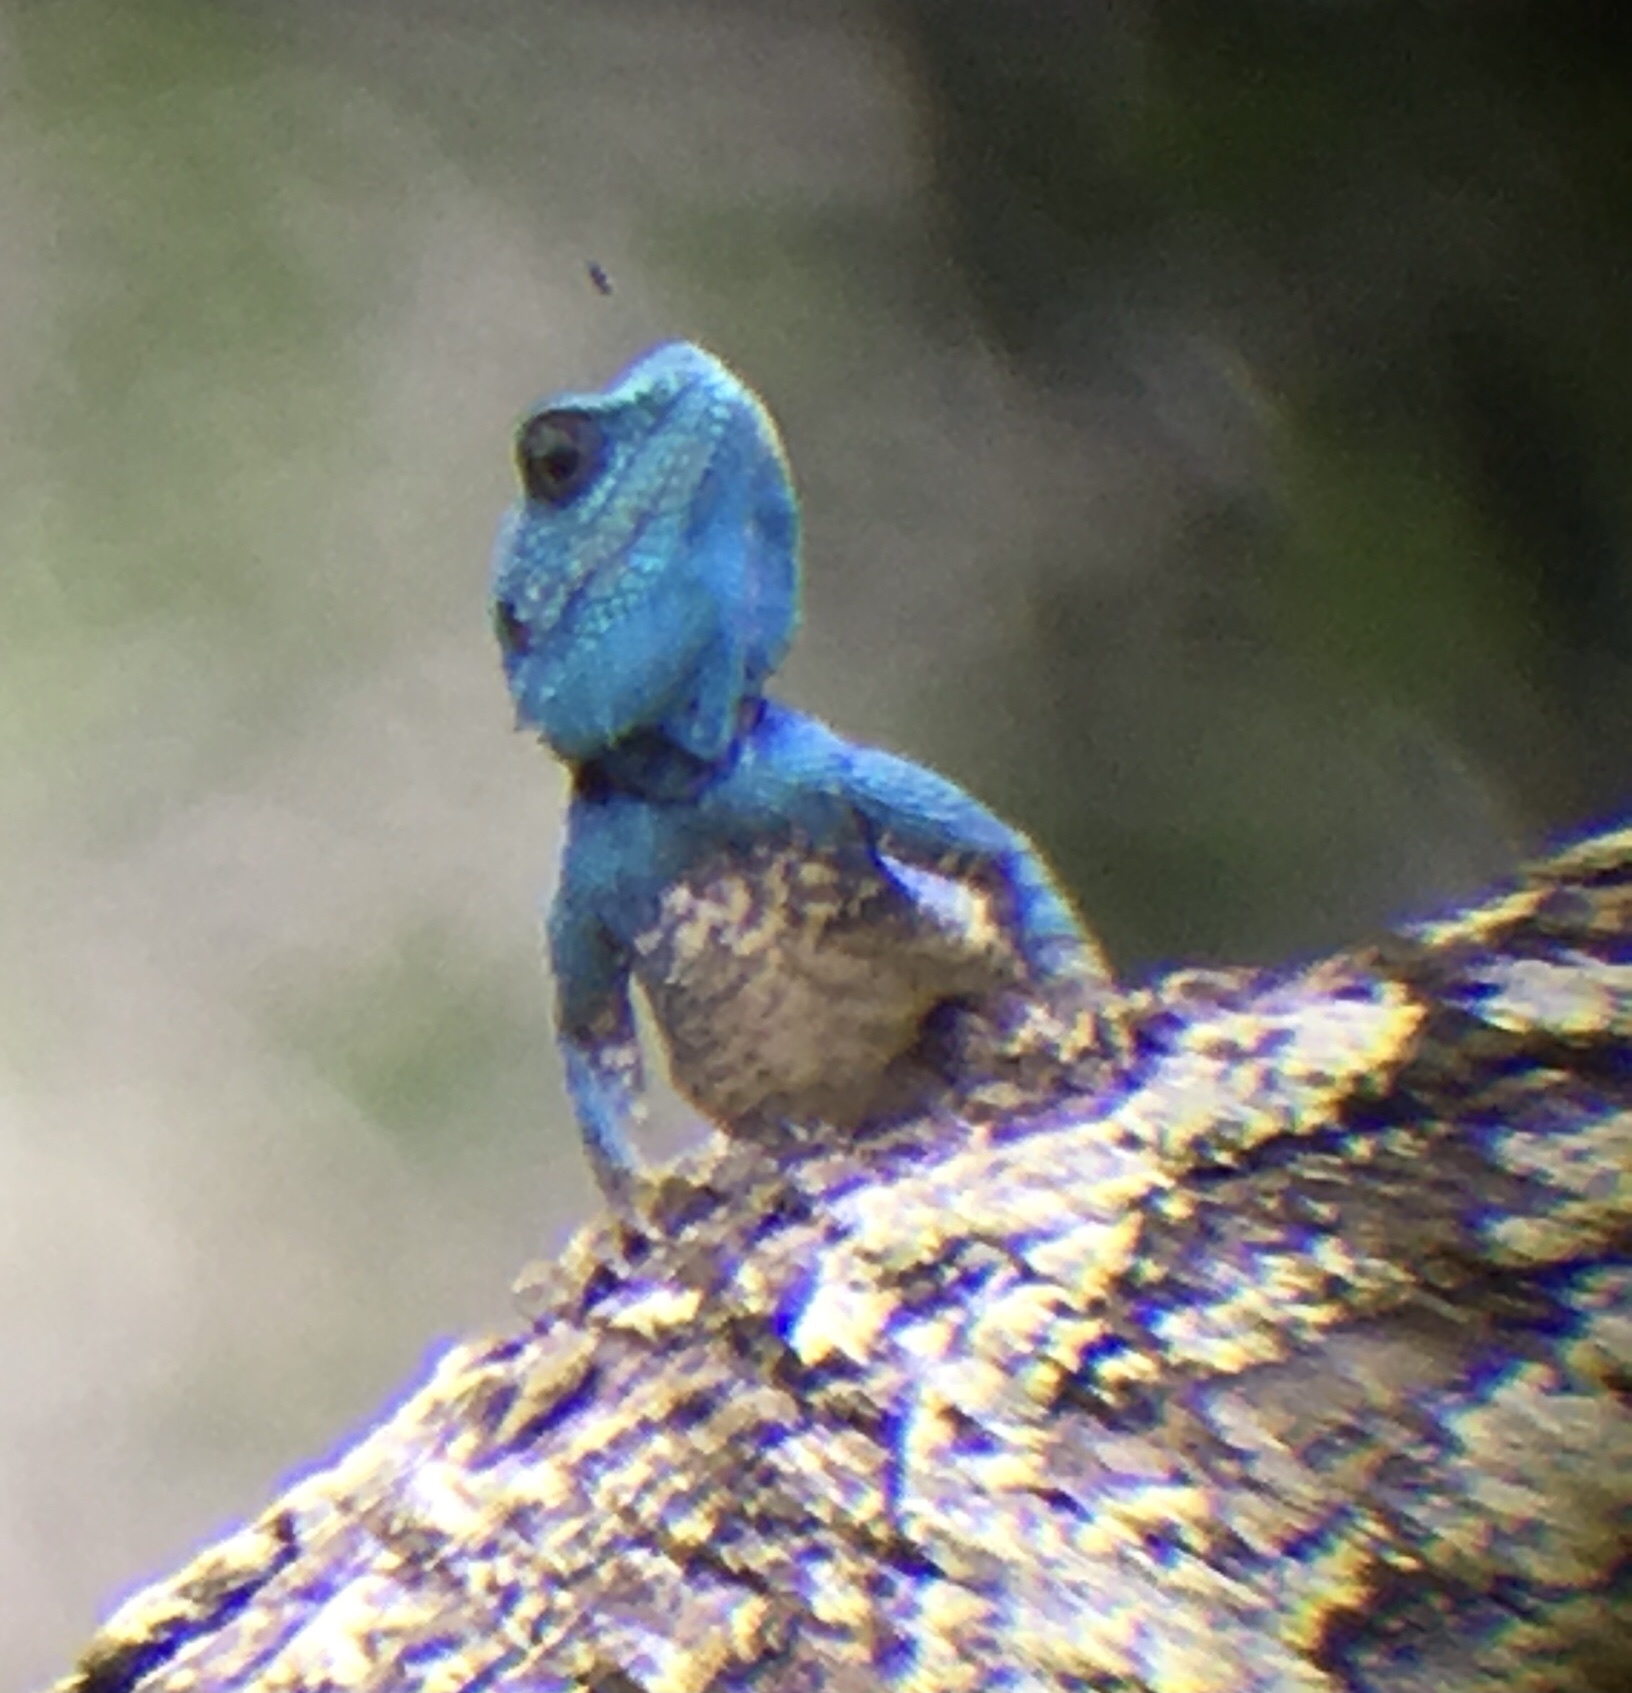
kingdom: Animalia
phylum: Chordata
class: Squamata
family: Agamidae
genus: Acanthocercus
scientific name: Acanthocercus atricollis
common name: Southern tree agama
